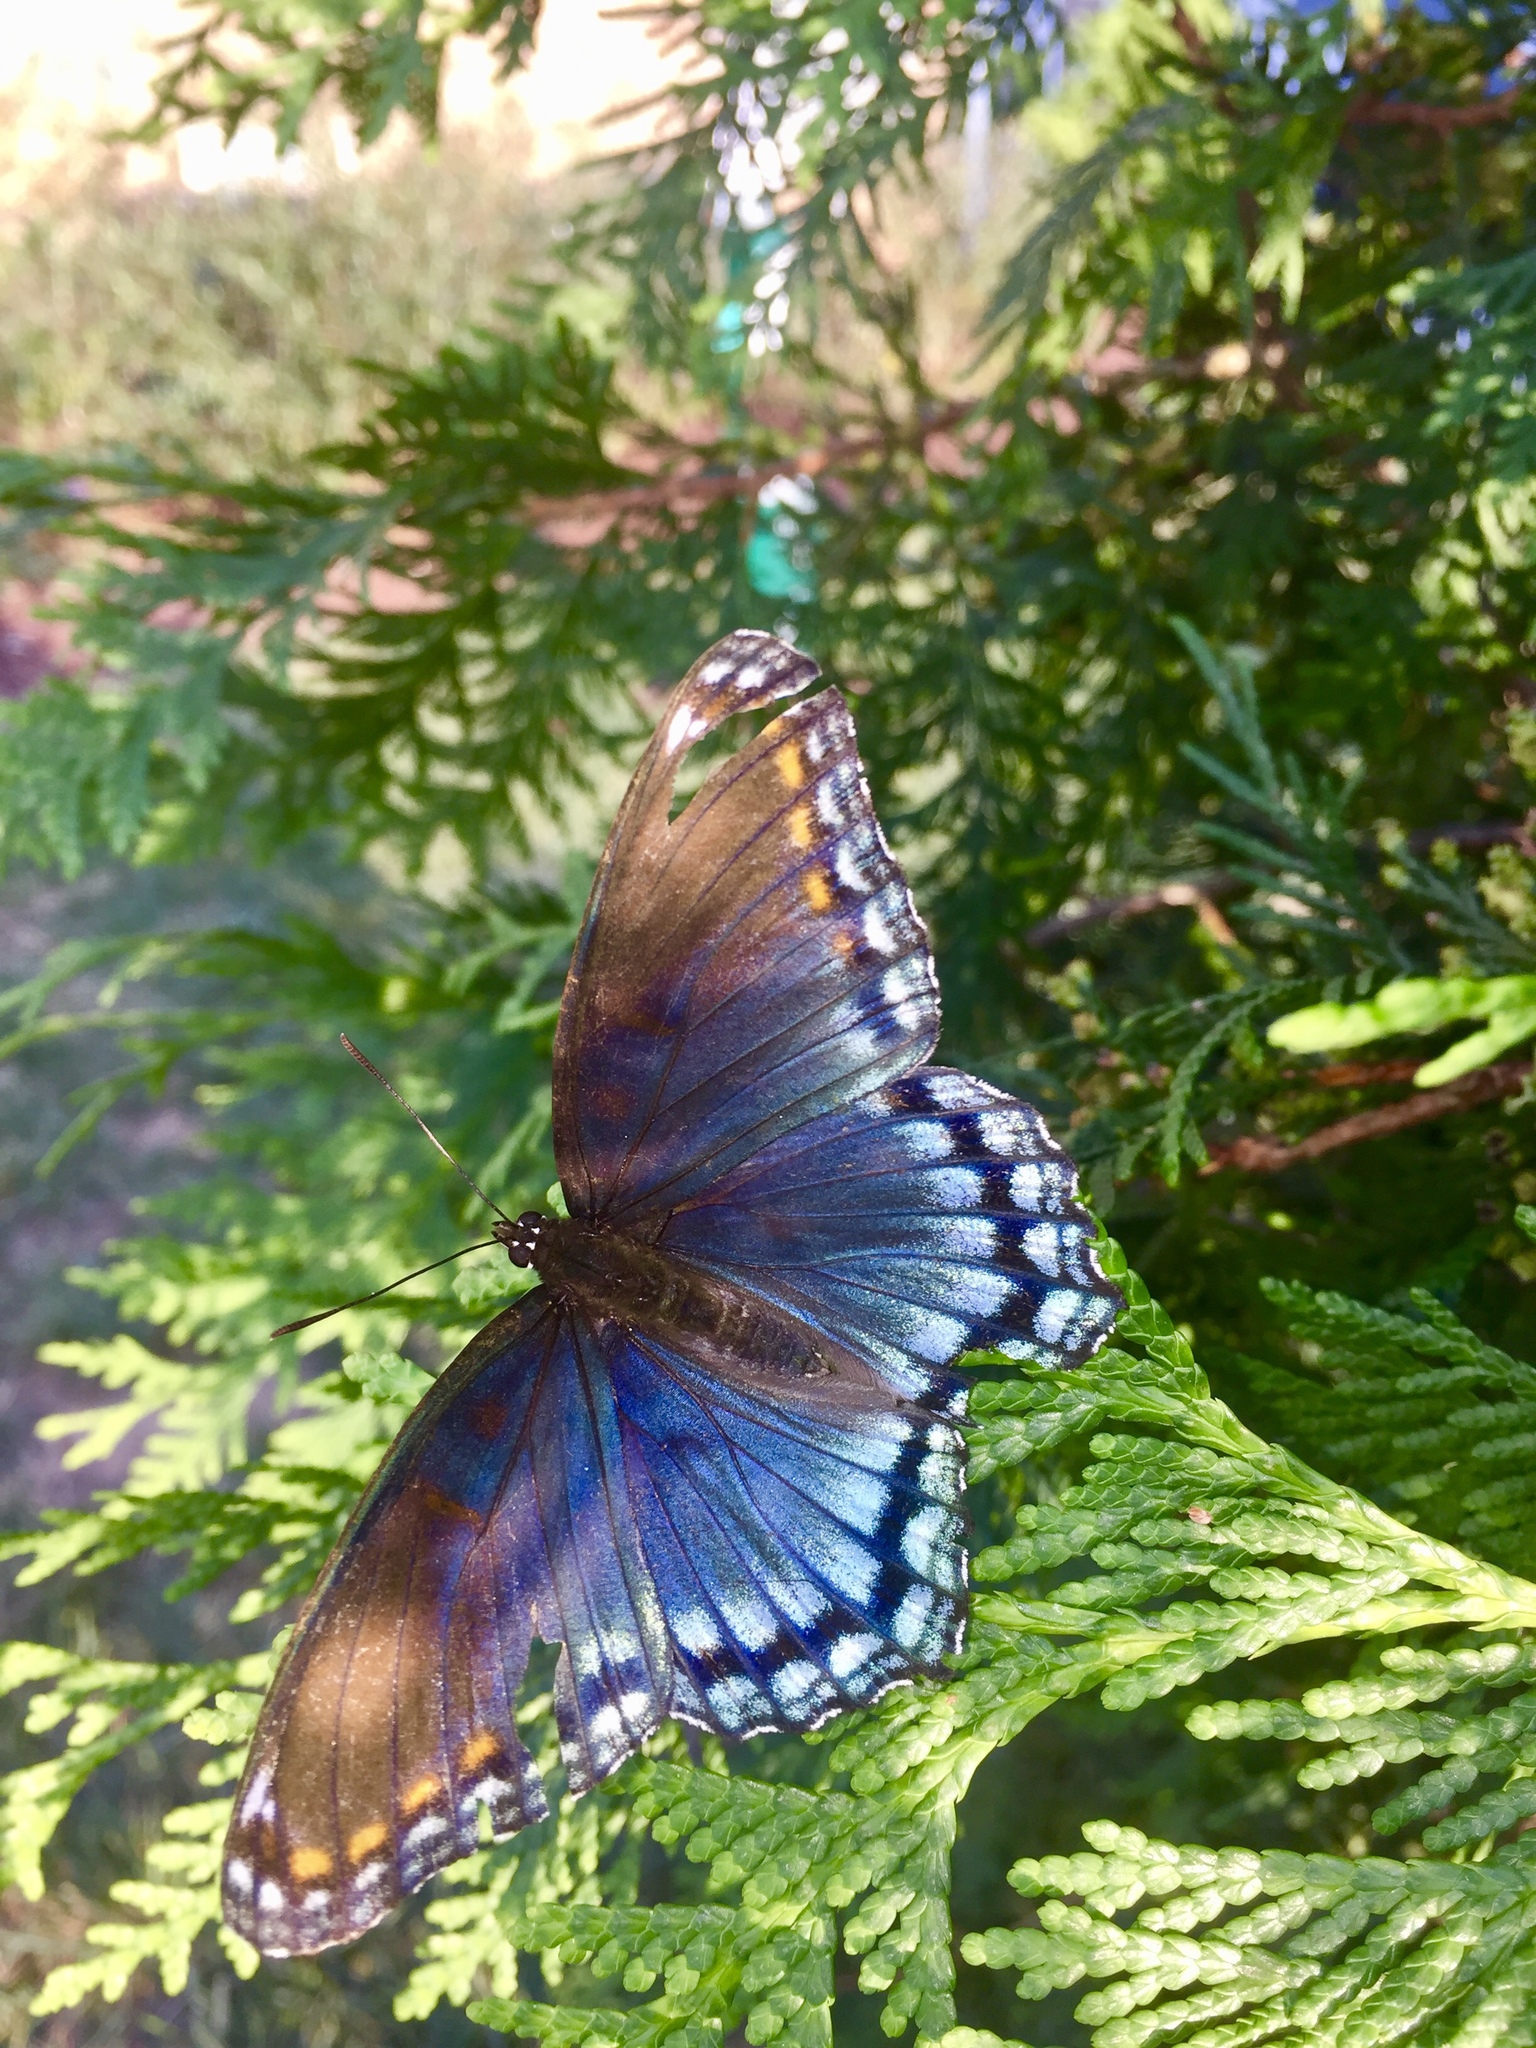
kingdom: Animalia
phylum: Arthropoda
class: Insecta
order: Lepidoptera
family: Nymphalidae
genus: Limenitis
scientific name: Limenitis astyanax
